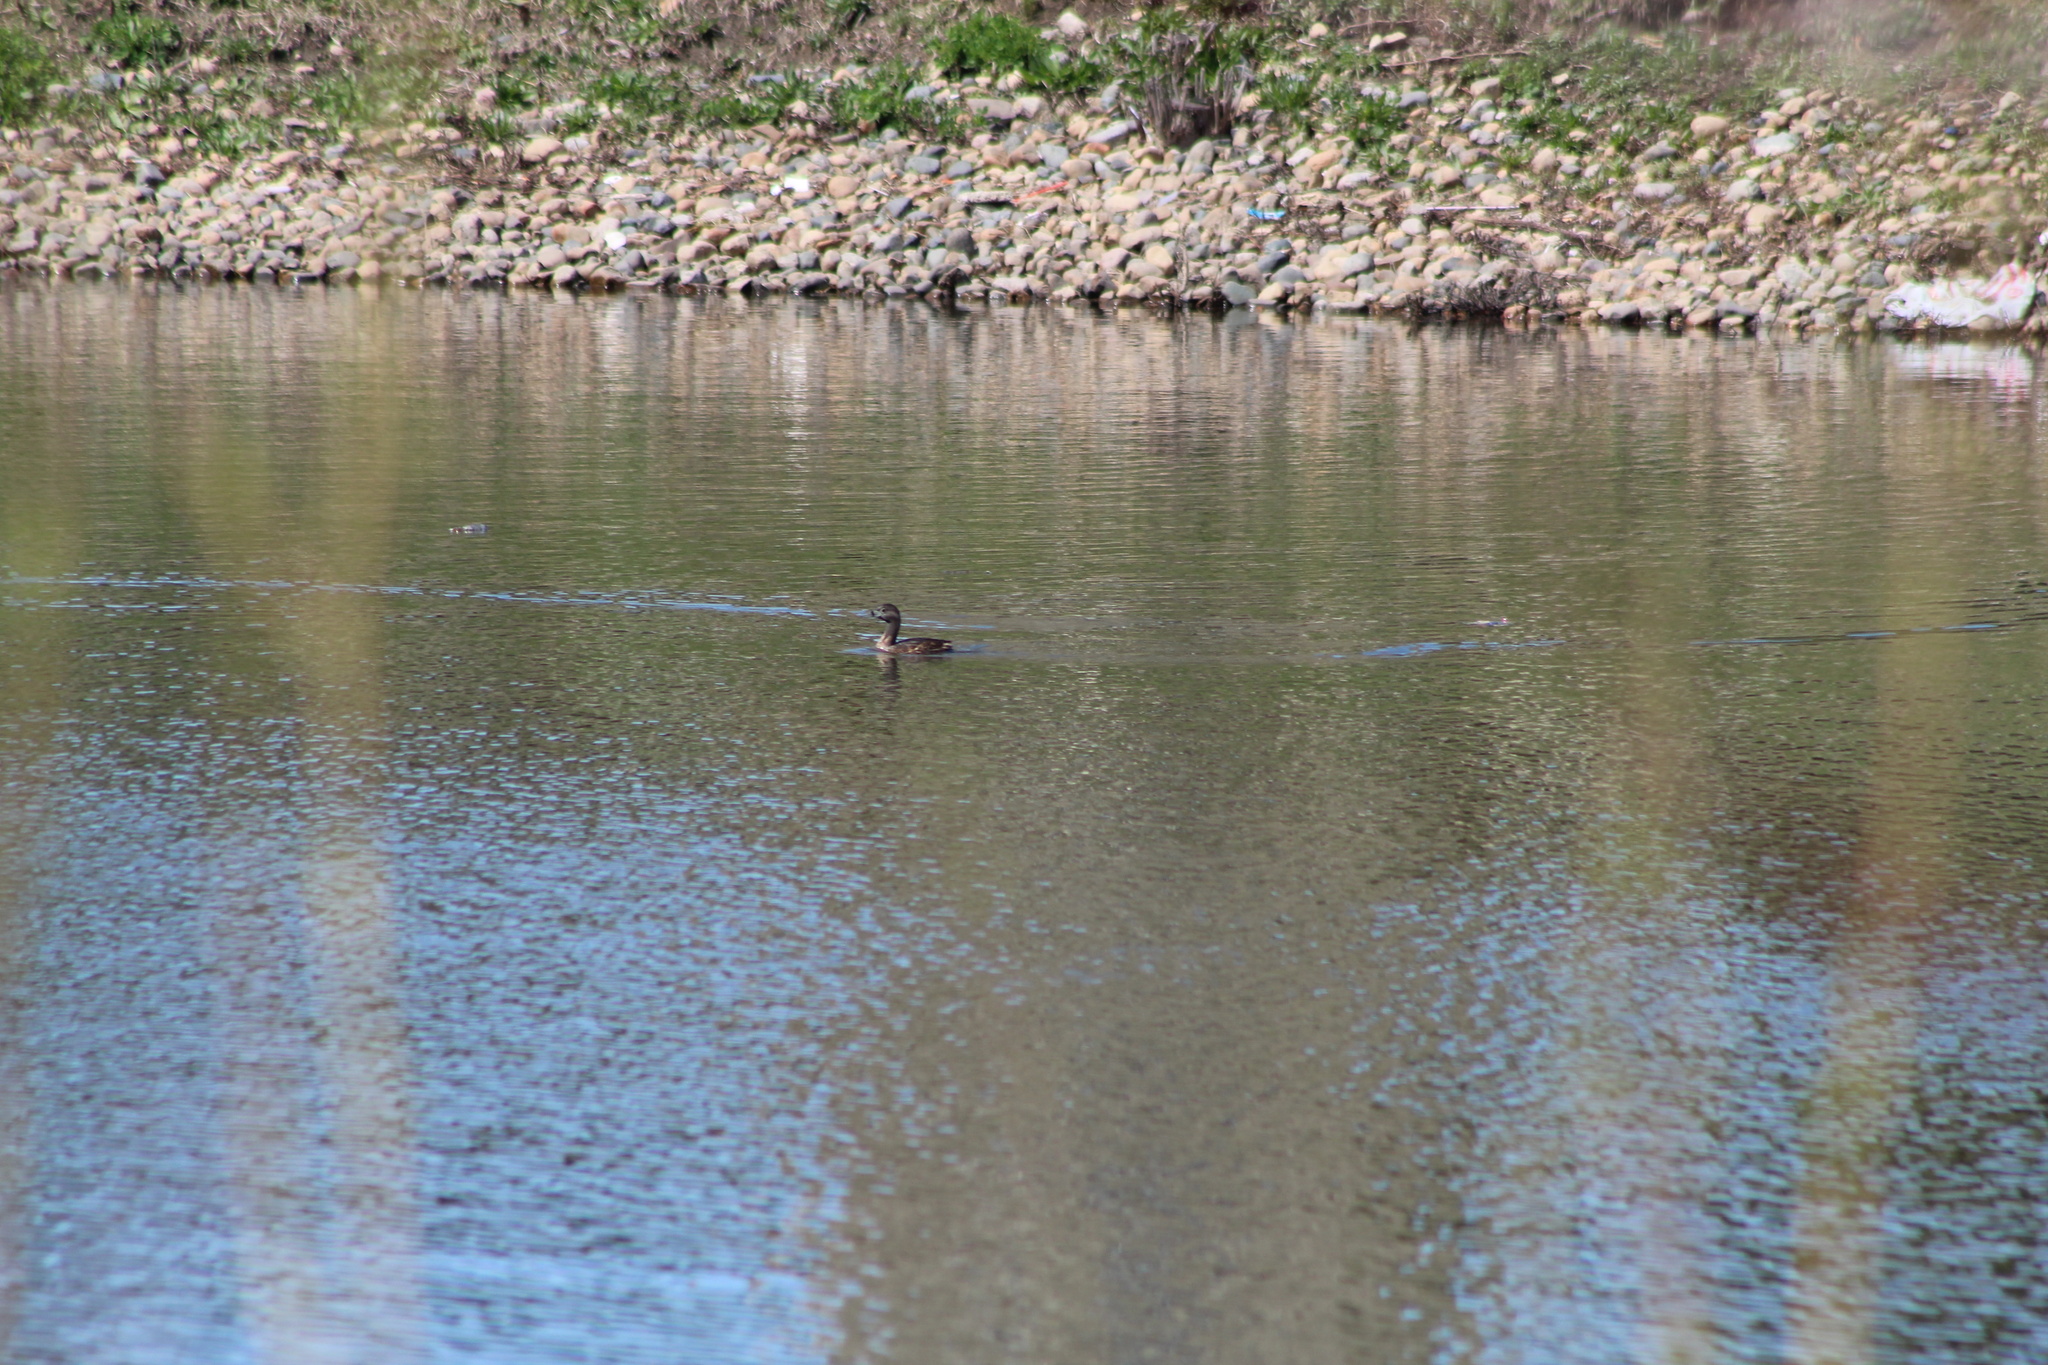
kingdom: Animalia
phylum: Chordata
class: Aves
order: Podicipediformes
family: Podicipedidae
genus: Podilymbus
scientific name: Podilymbus podiceps
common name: Pied-billed grebe
